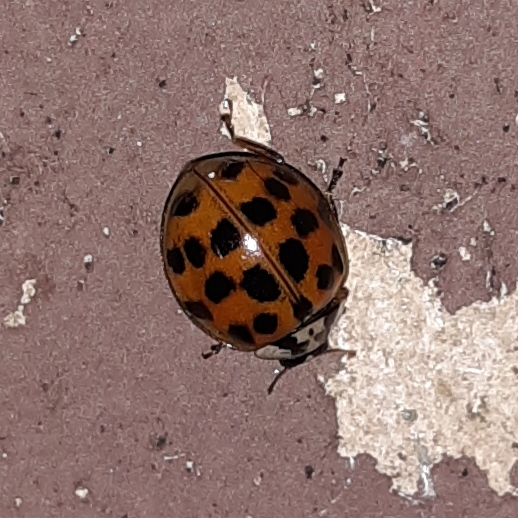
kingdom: Animalia
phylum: Arthropoda
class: Insecta
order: Coleoptera
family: Coccinellidae
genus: Harmonia
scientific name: Harmonia axyridis
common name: Harlequin ladybird
